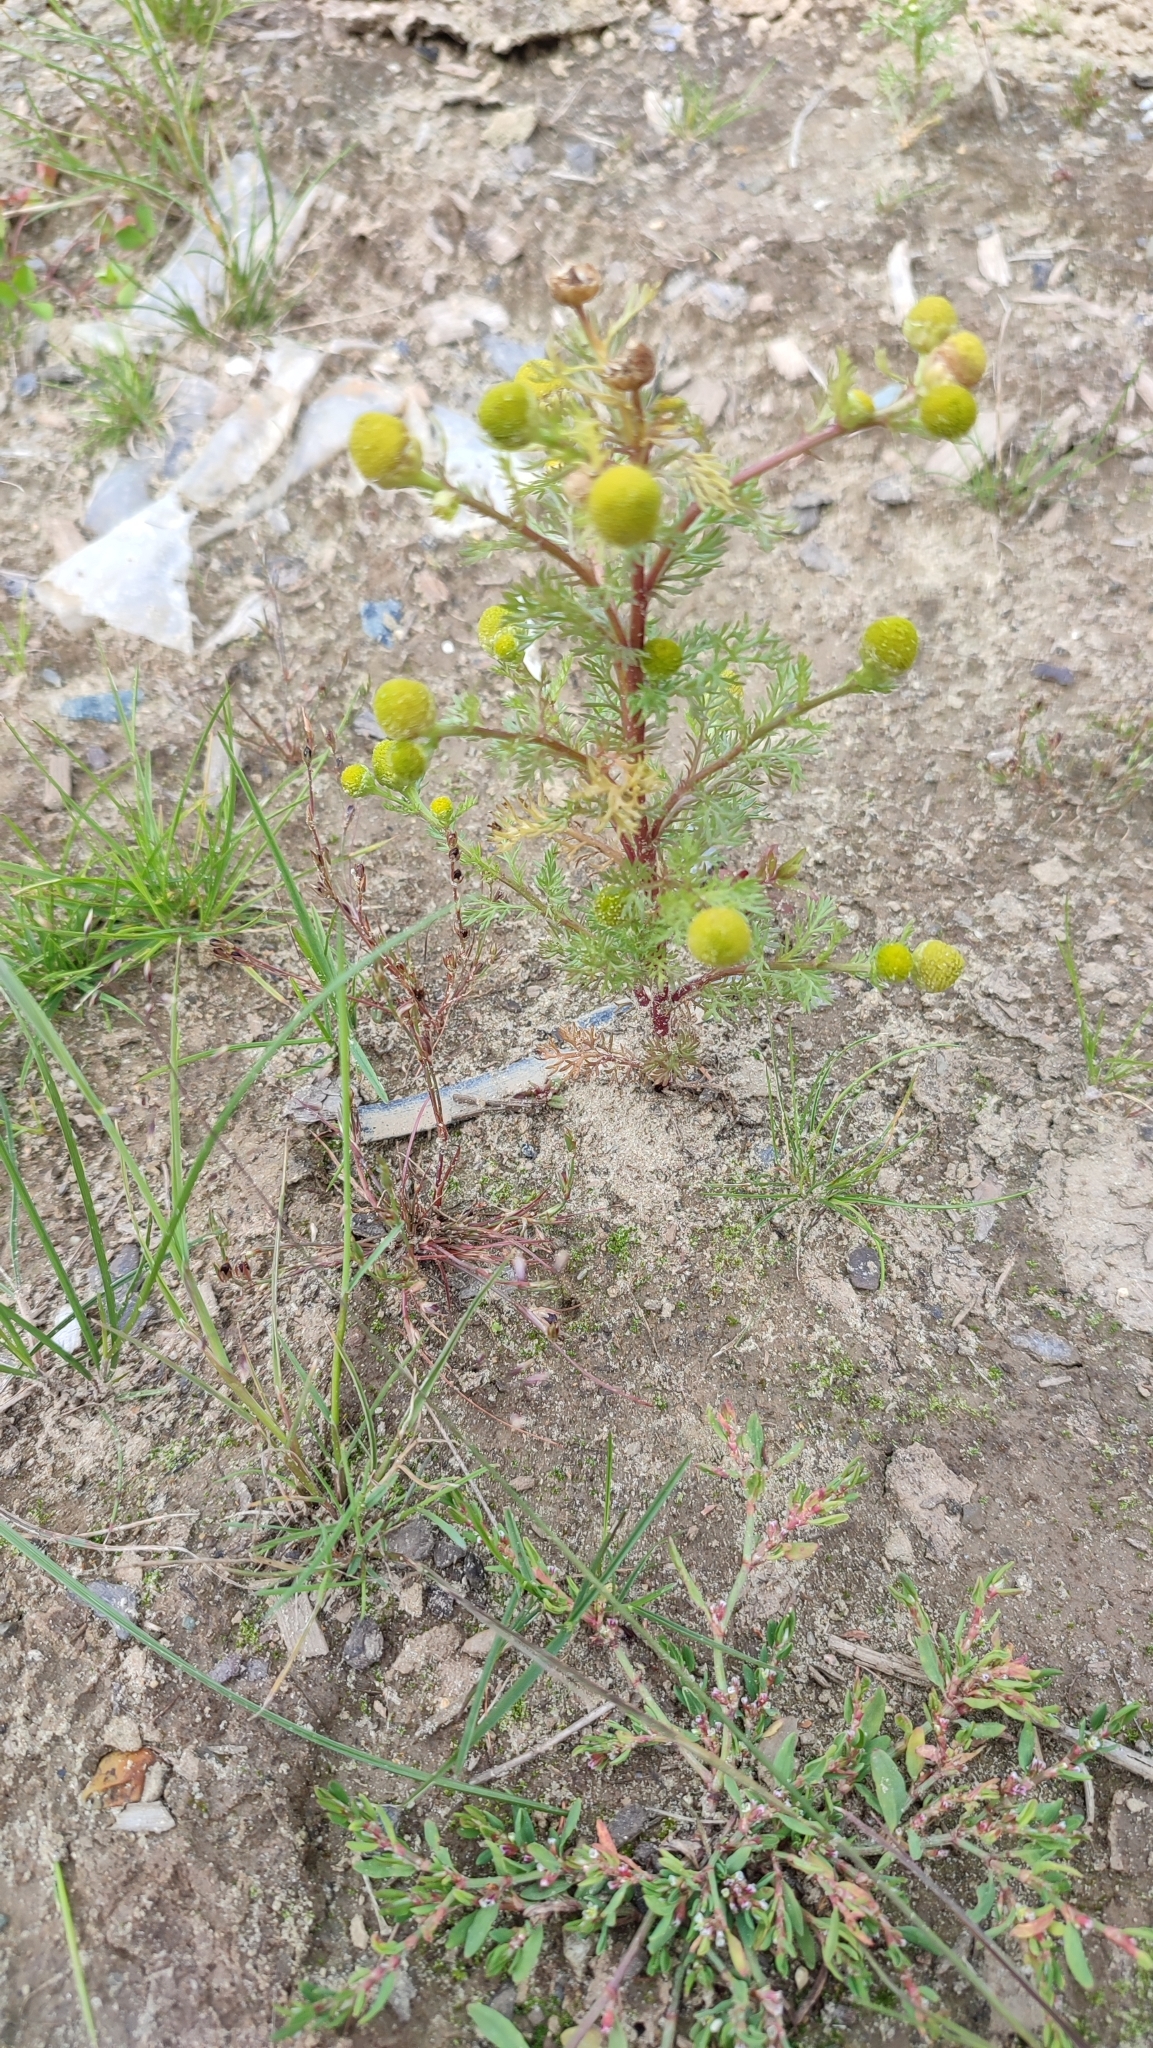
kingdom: Plantae
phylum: Tracheophyta
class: Magnoliopsida
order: Asterales
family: Asteraceae
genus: Matricaria
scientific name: Matricaria discoidea
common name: Disc mayweed
